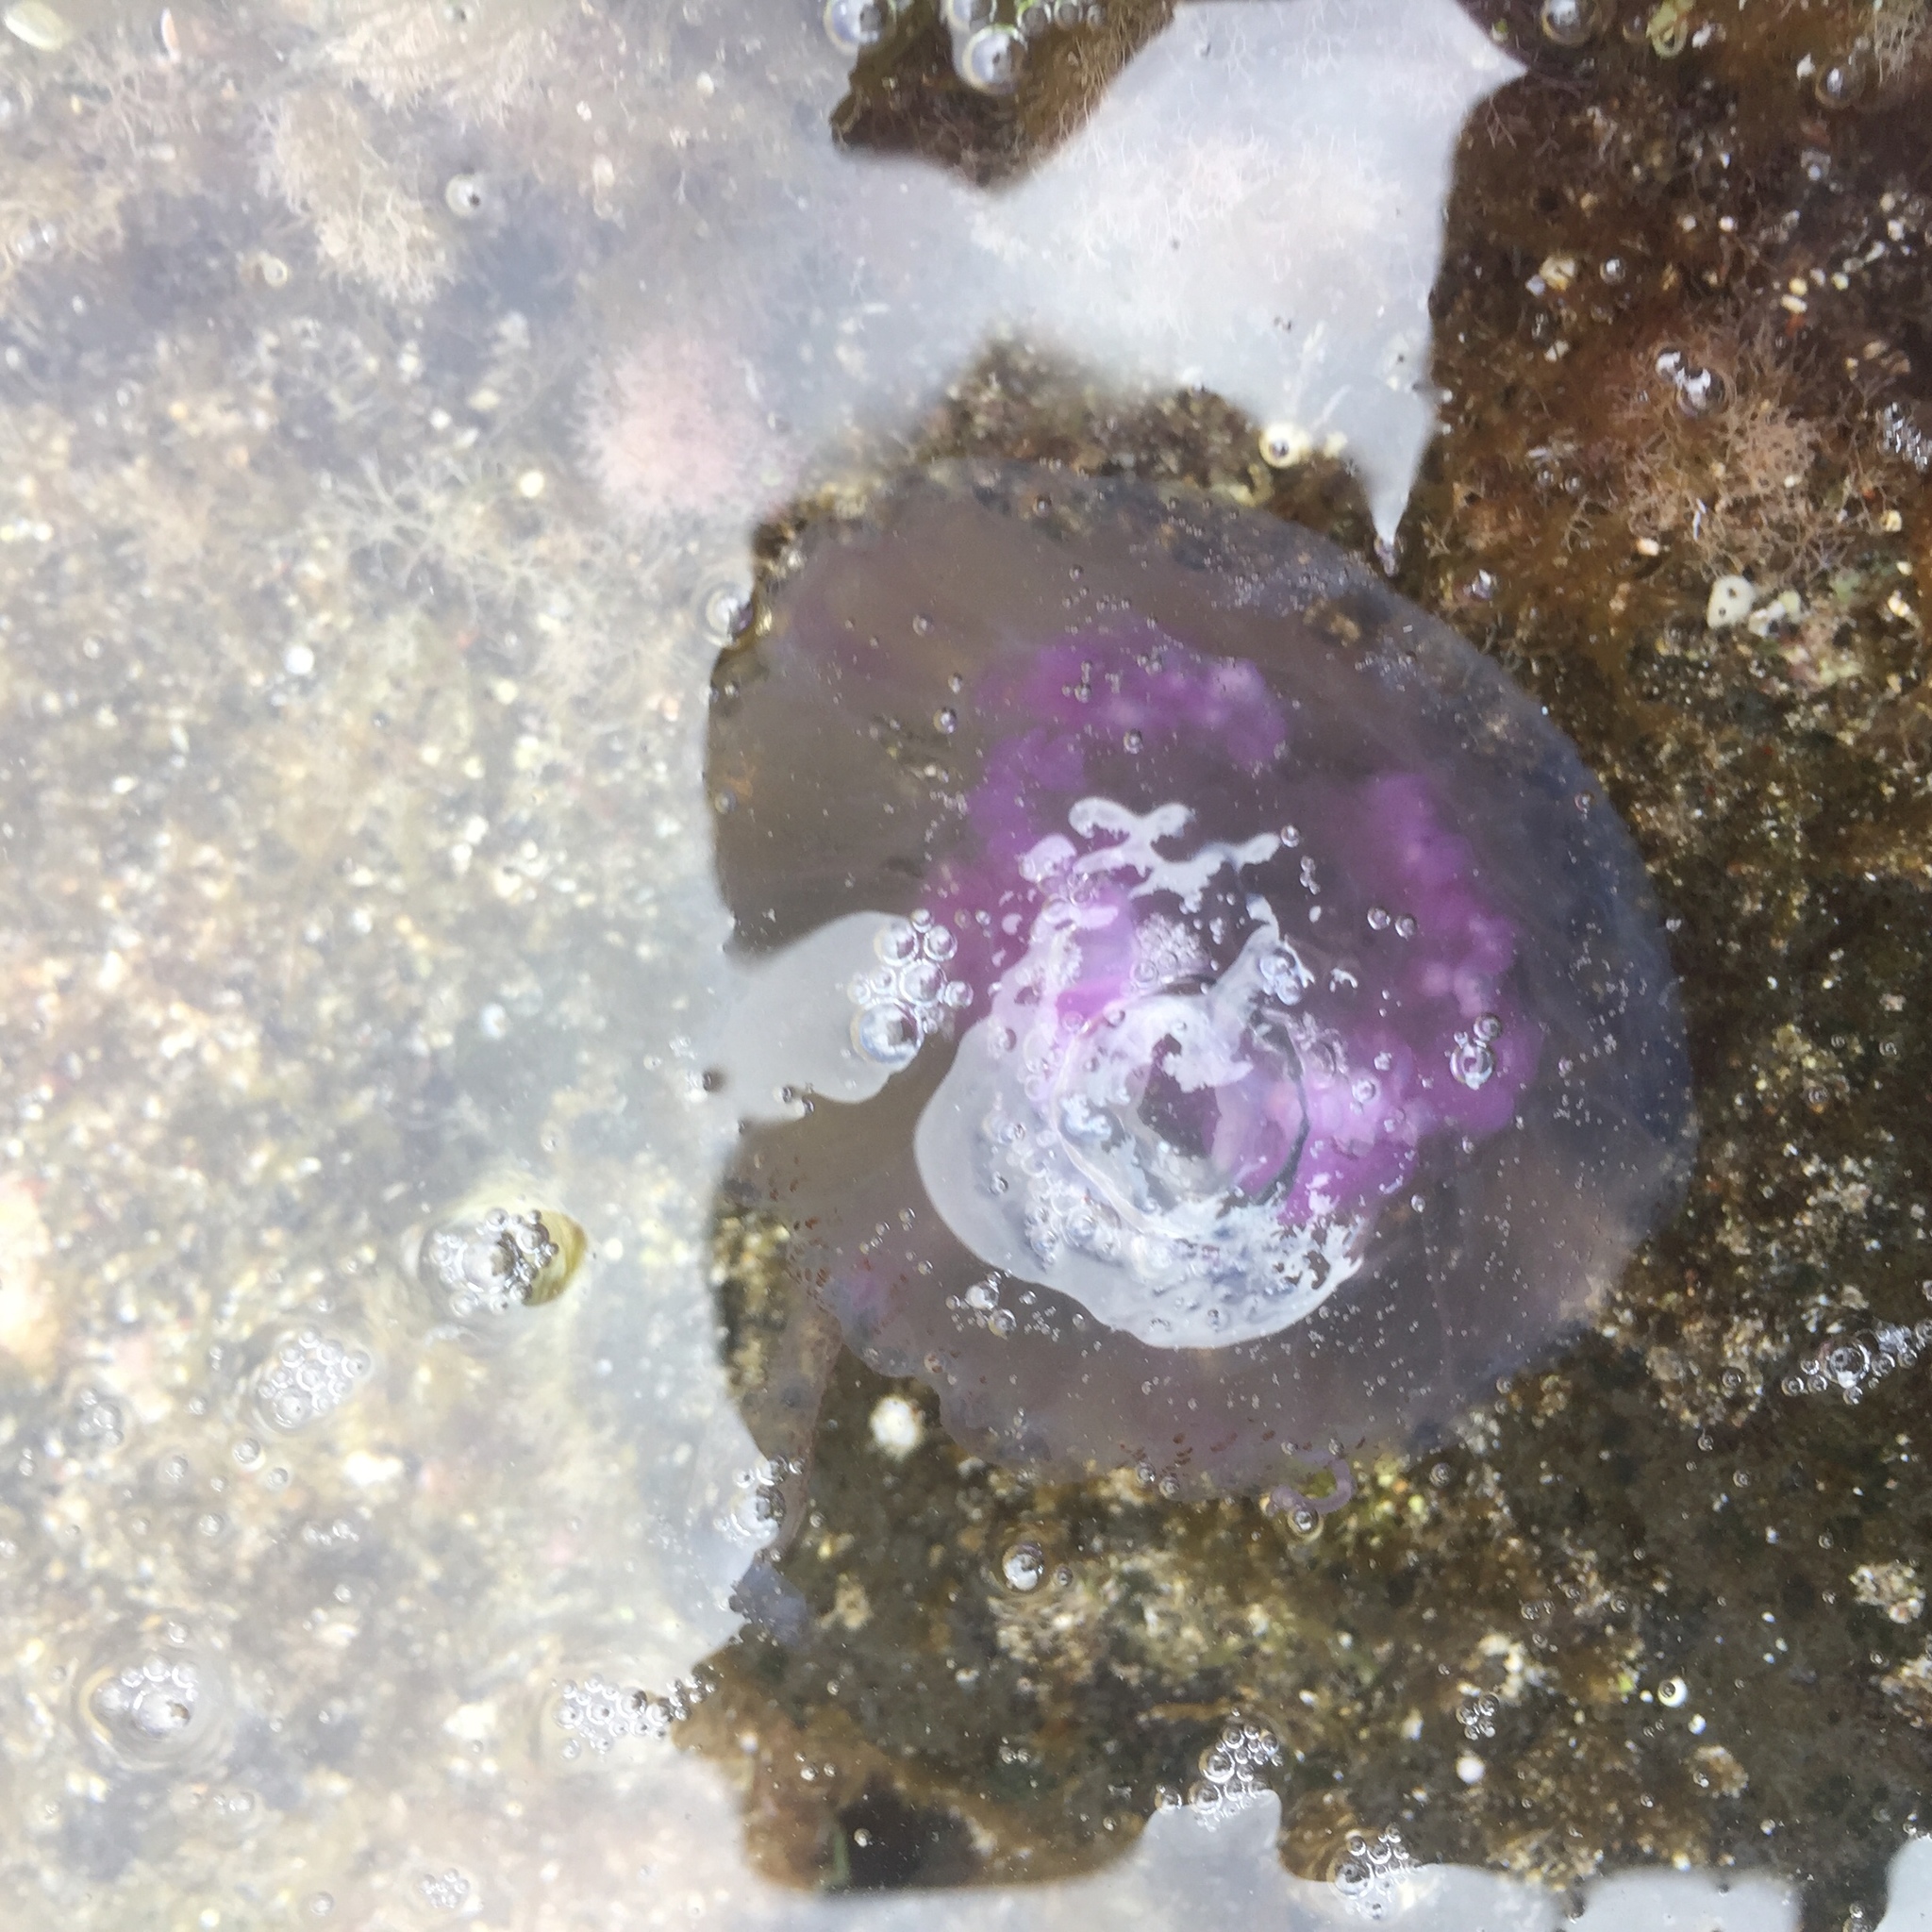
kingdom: Animalia
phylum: Cnidaria
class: Scyphozoa
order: Semaeostomeae
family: Pelagiidae
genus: Pelagia
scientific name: Pelagia noctiluca
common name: Mauve stinger
